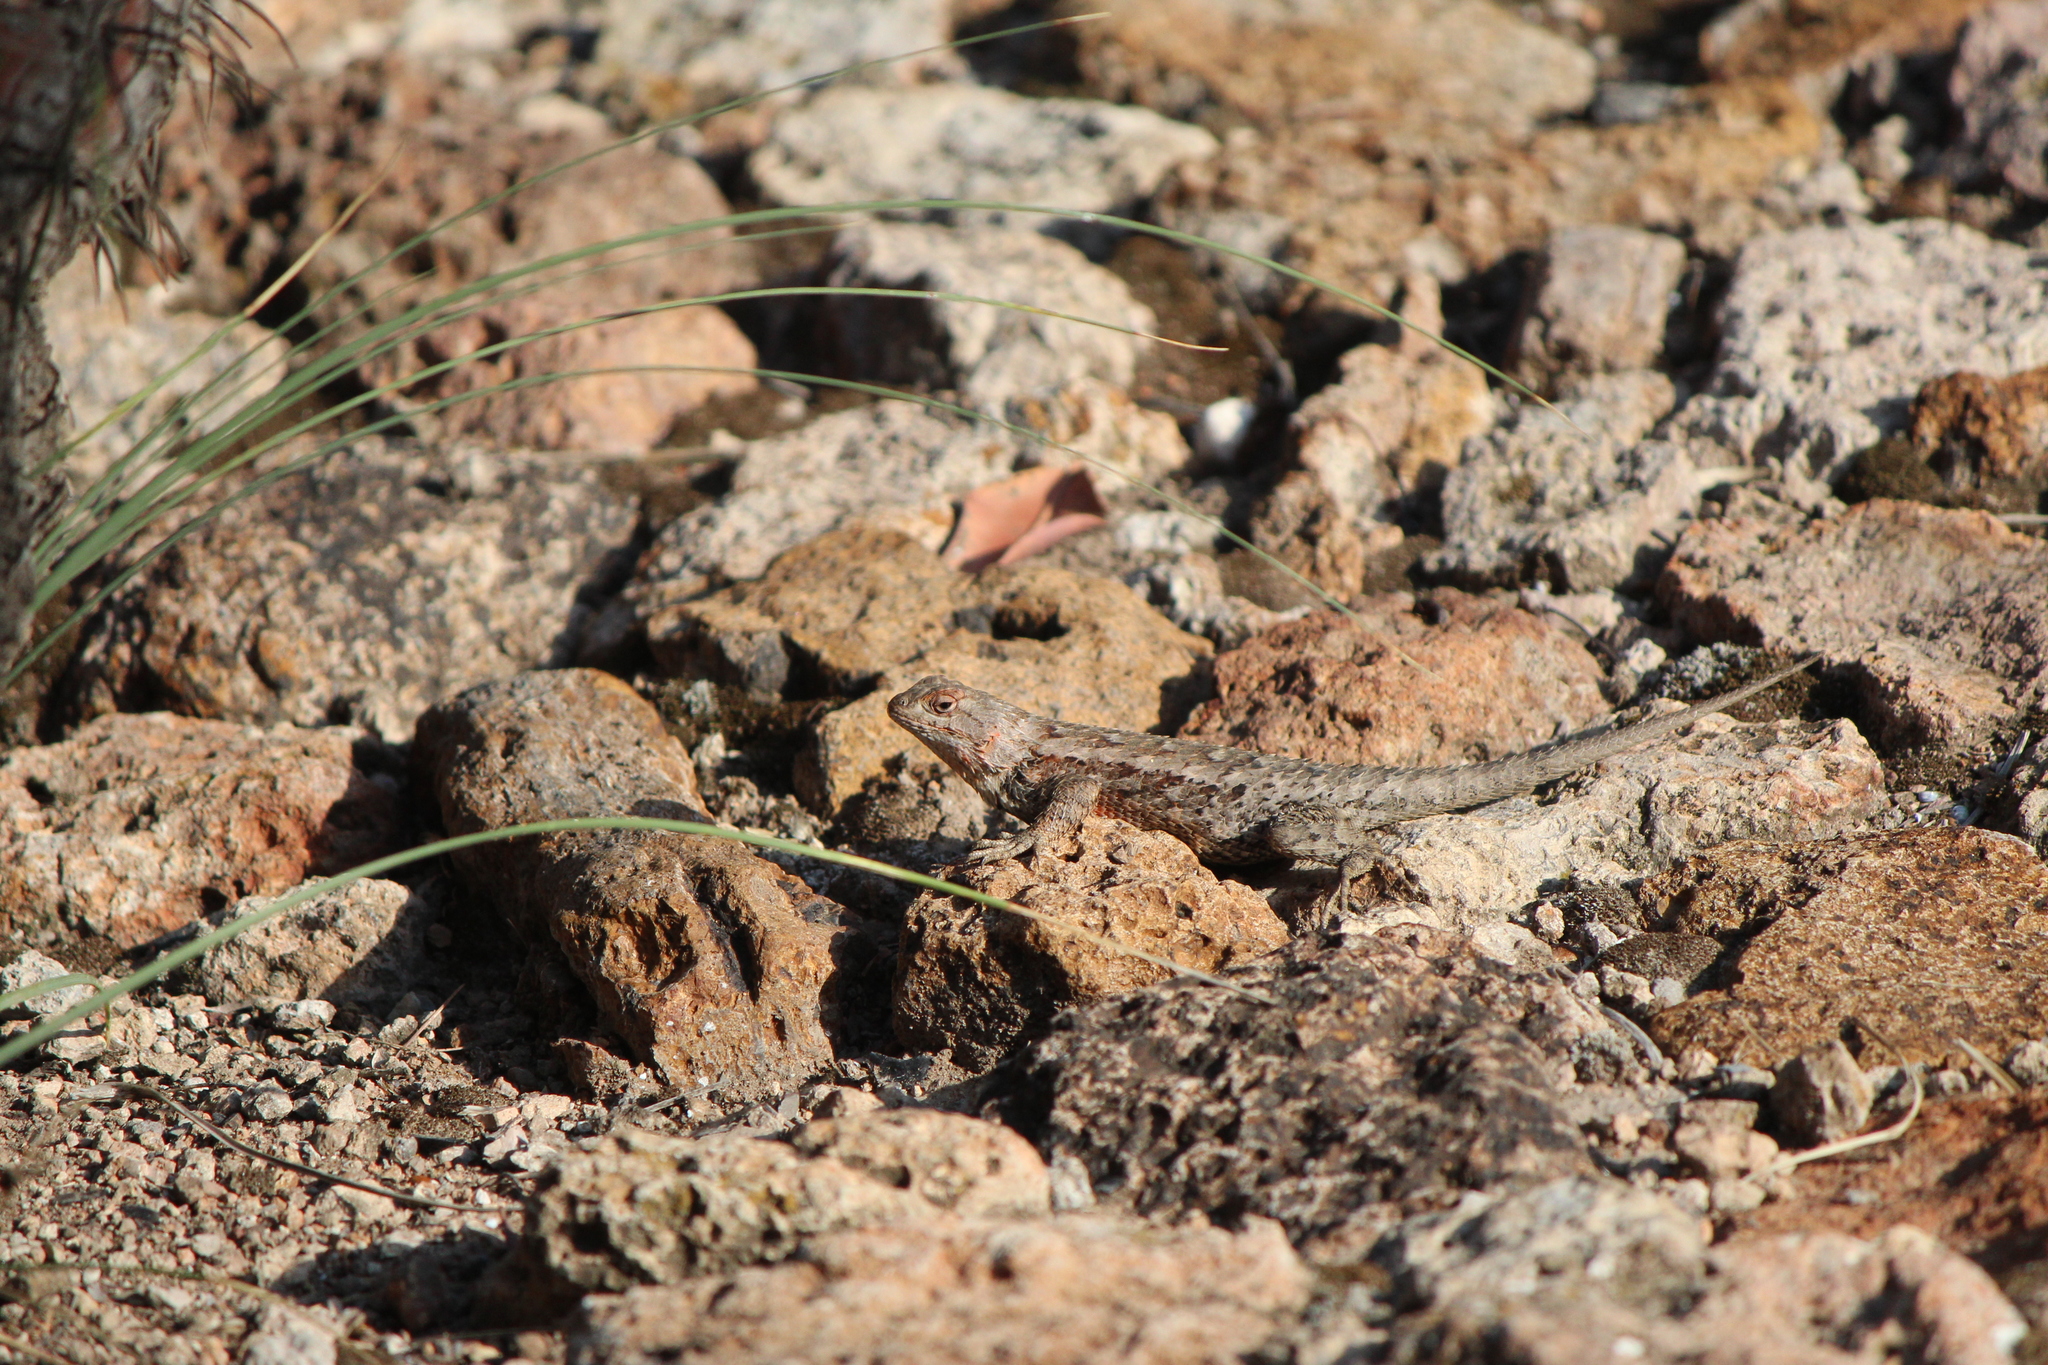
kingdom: Animalia
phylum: Chordata
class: Squamata
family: Phrynosomatidae
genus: Sceloporus
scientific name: Sceloporus spinosus
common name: Blue-spotted spiny lizard [caeruleopunctatus]
